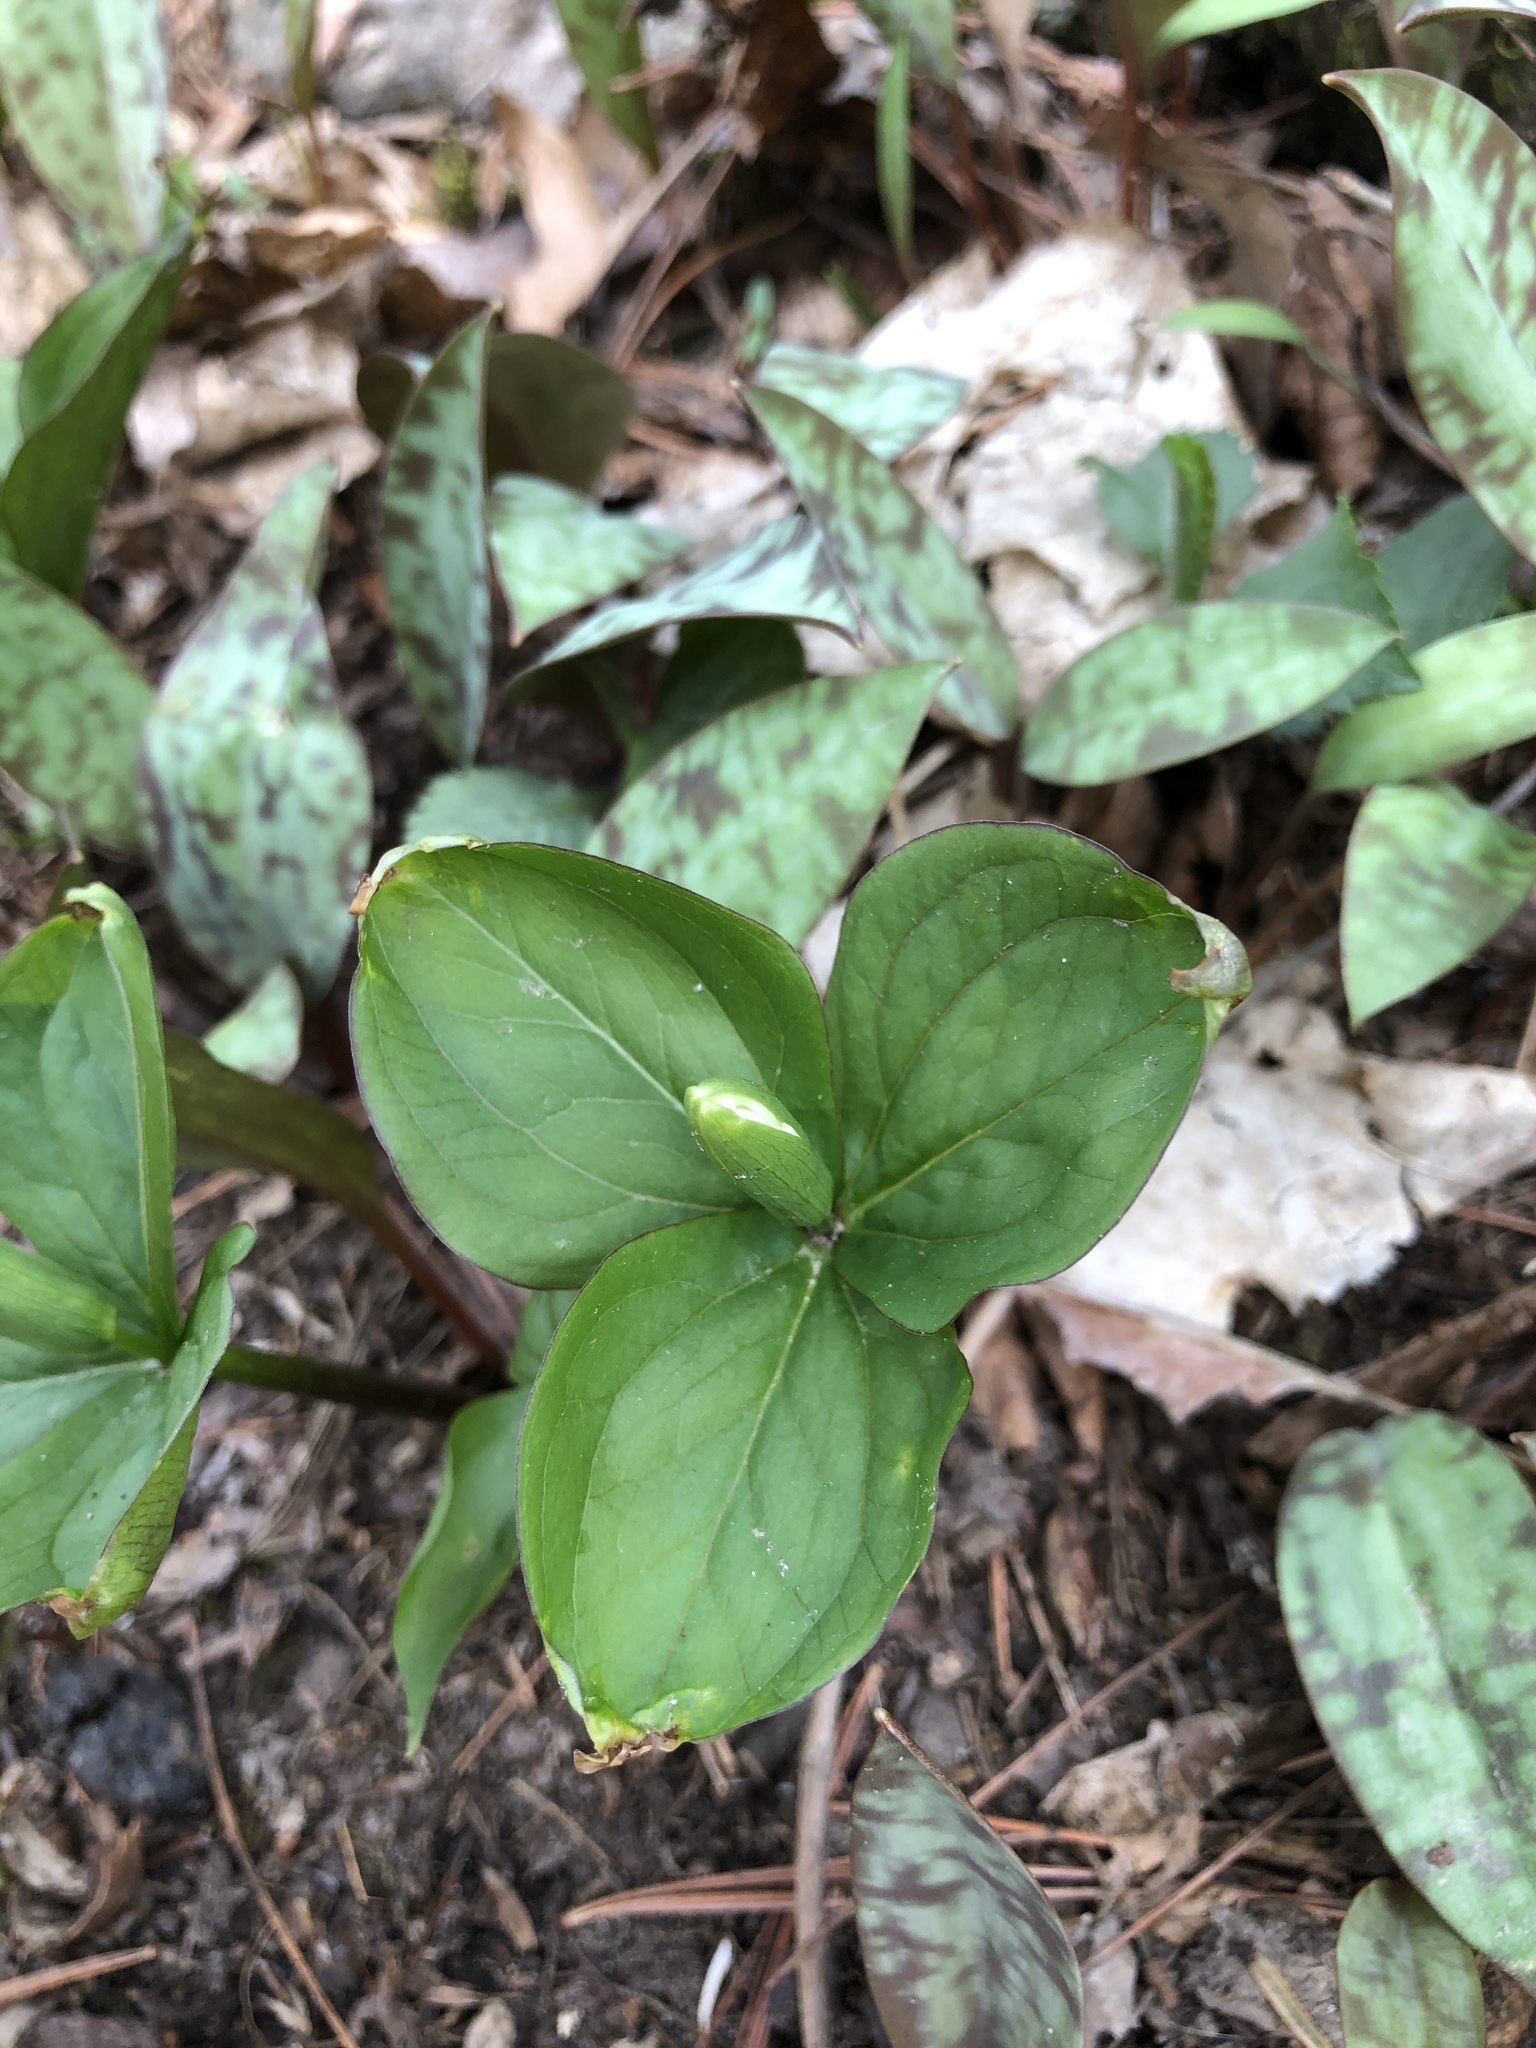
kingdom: Plantae
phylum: Tracheophyta
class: Liliopsida
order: Liliales
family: Melanthiaceae
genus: Trillium
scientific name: Trillium grandiflorum
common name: Great white trillium
